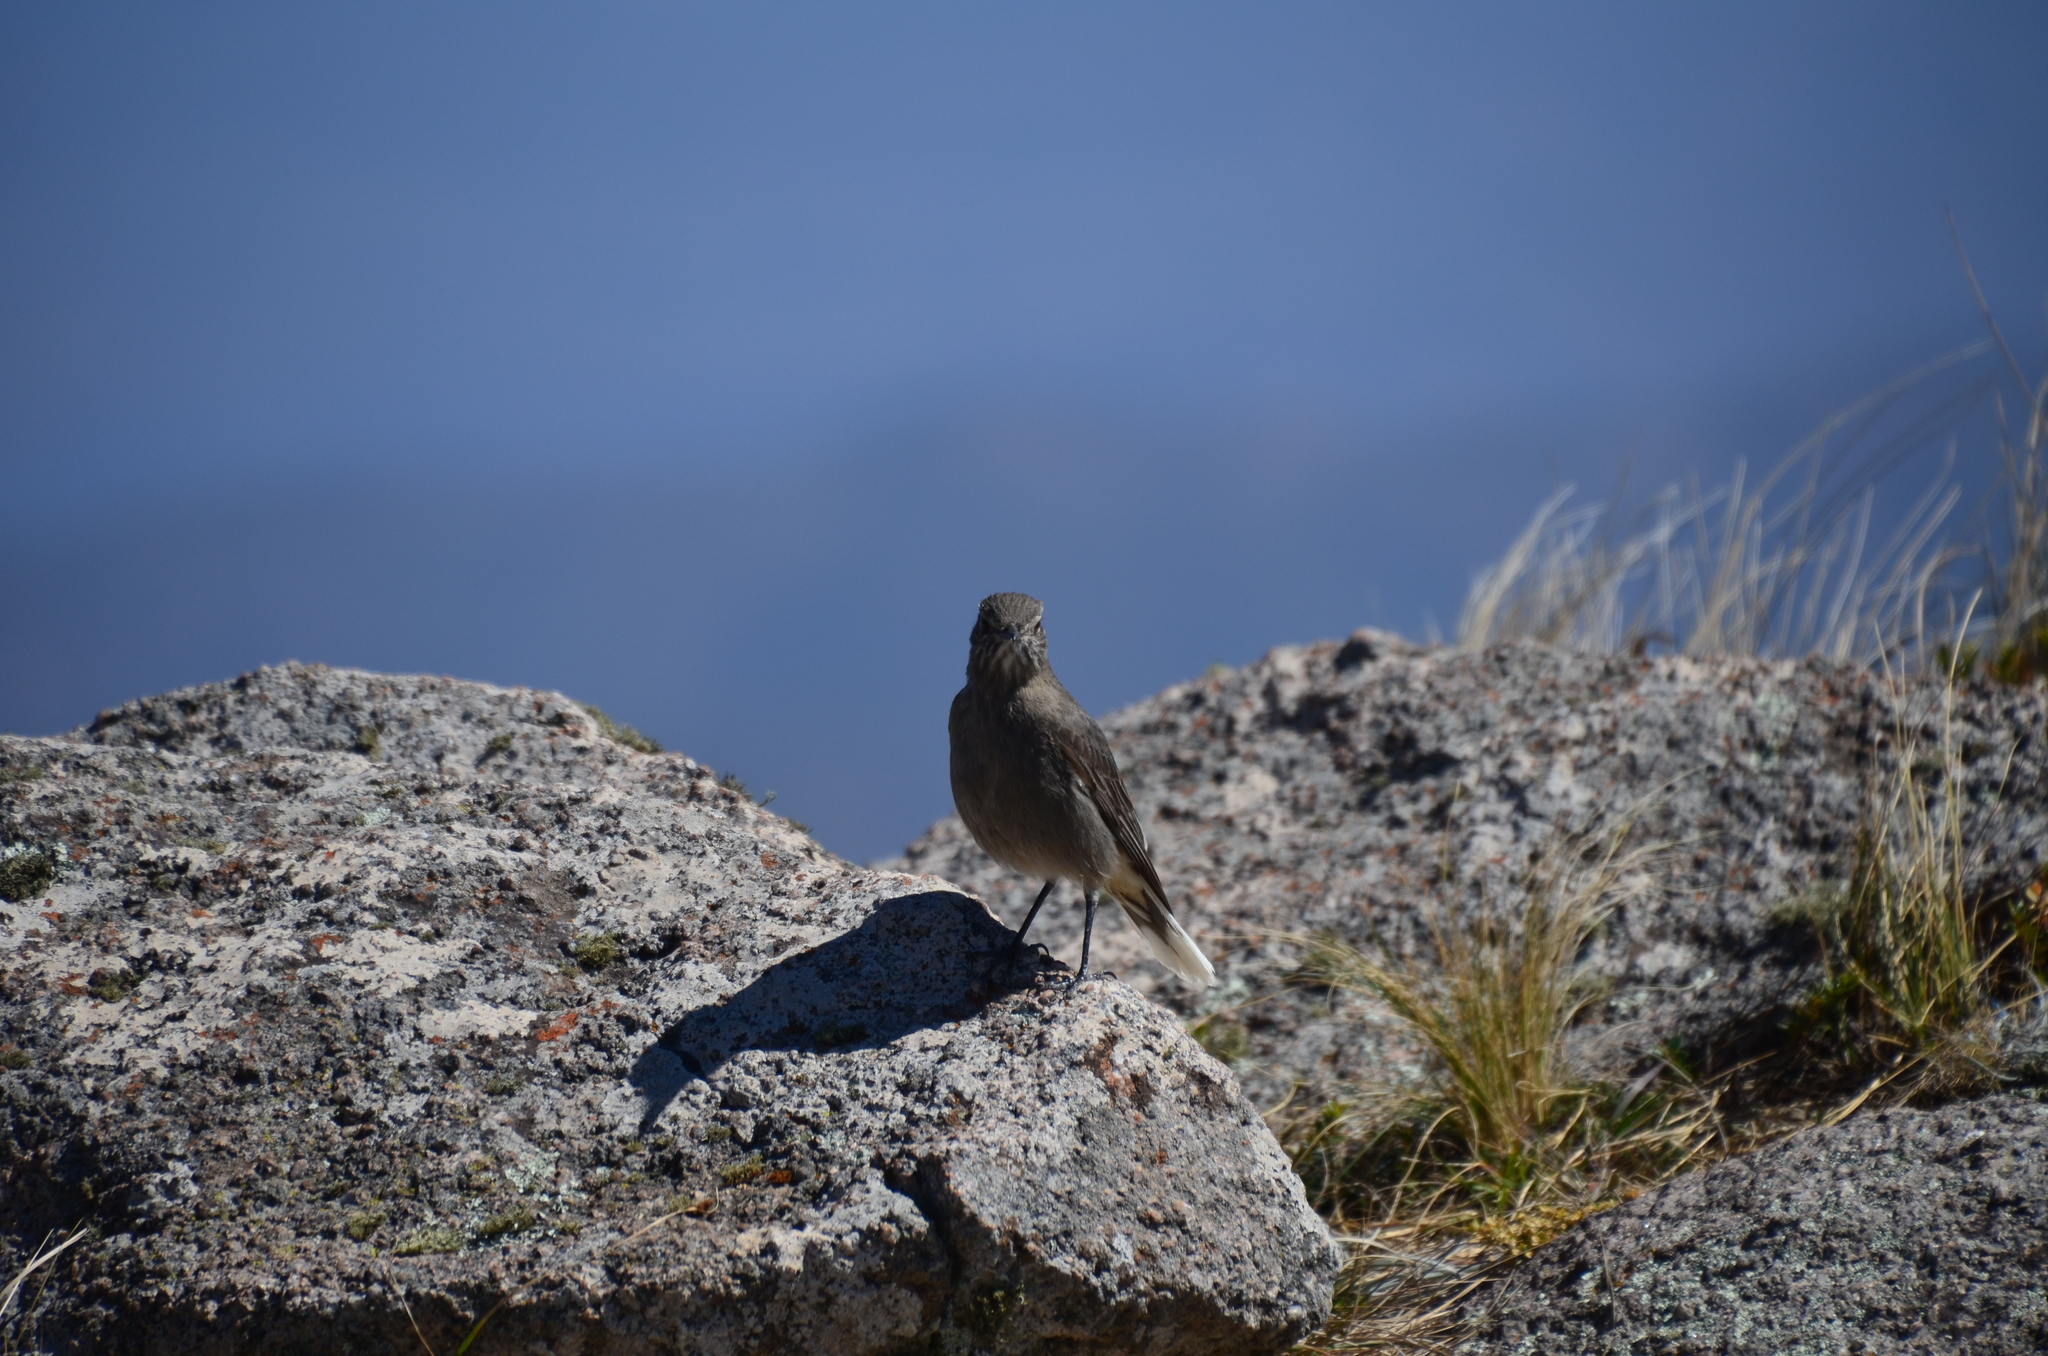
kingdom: Animalia
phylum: Chordata
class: Aves
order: Passeriformes
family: Tyrannidae
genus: Agriornis
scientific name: Agriornis montanus
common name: Black-billed shrike-tyrant
